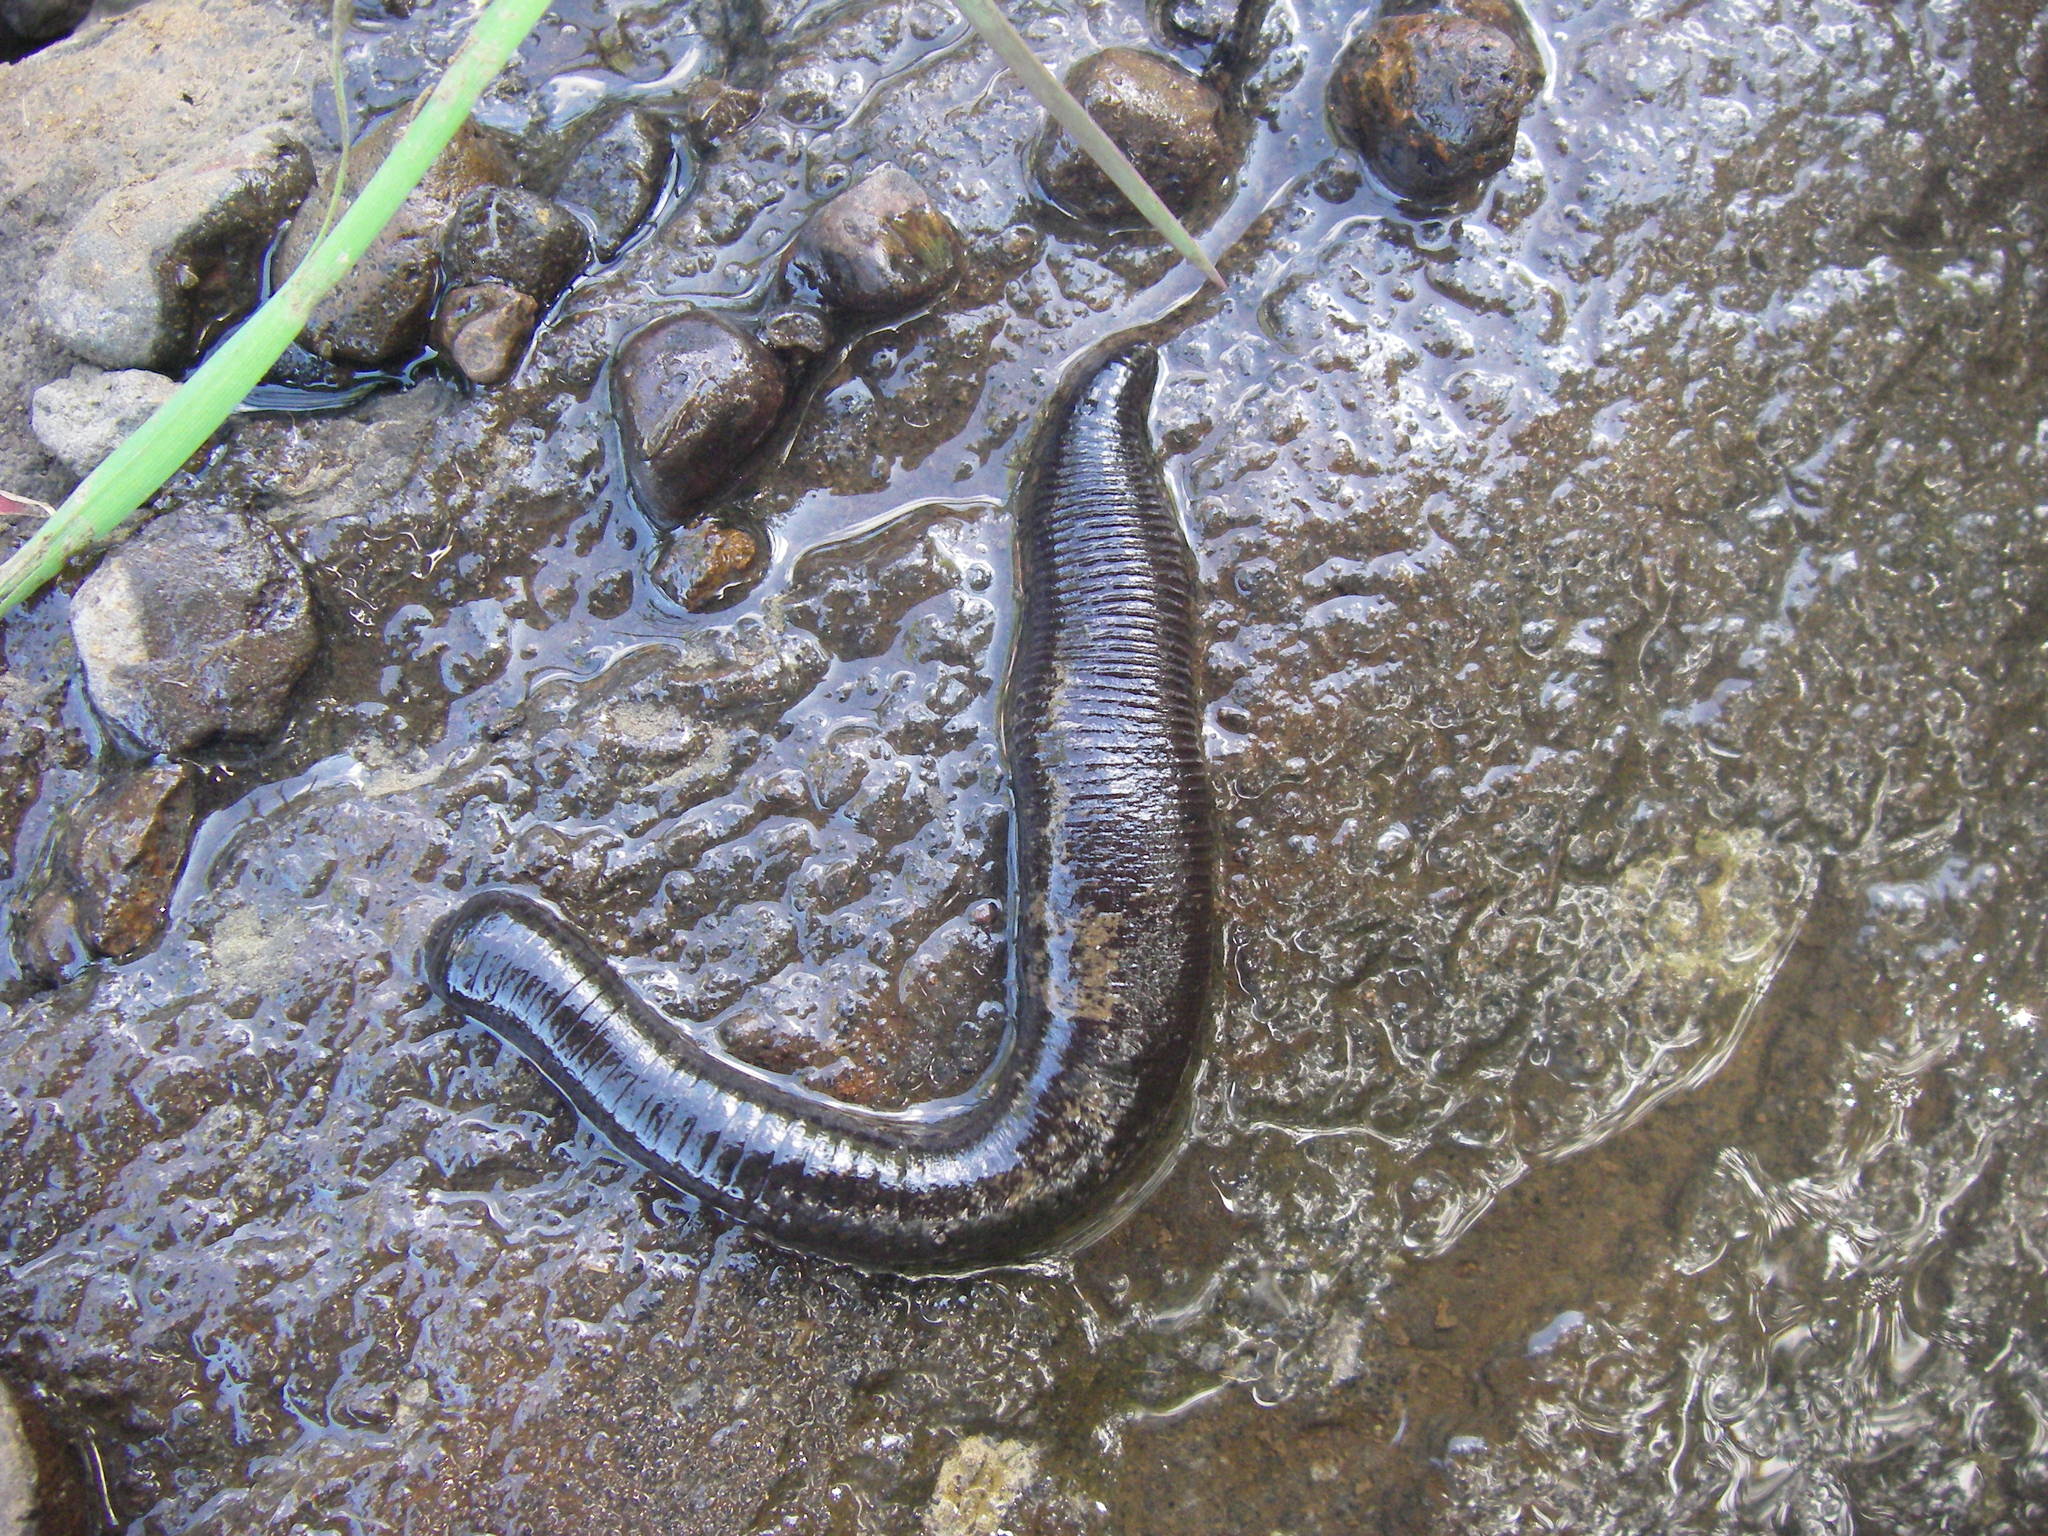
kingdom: Animalia
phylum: Annelida
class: Clitellata
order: Arhynchobdellida
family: Haemopidae
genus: Haemopis
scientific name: Haemopis sanguisuga
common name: Horse leech
